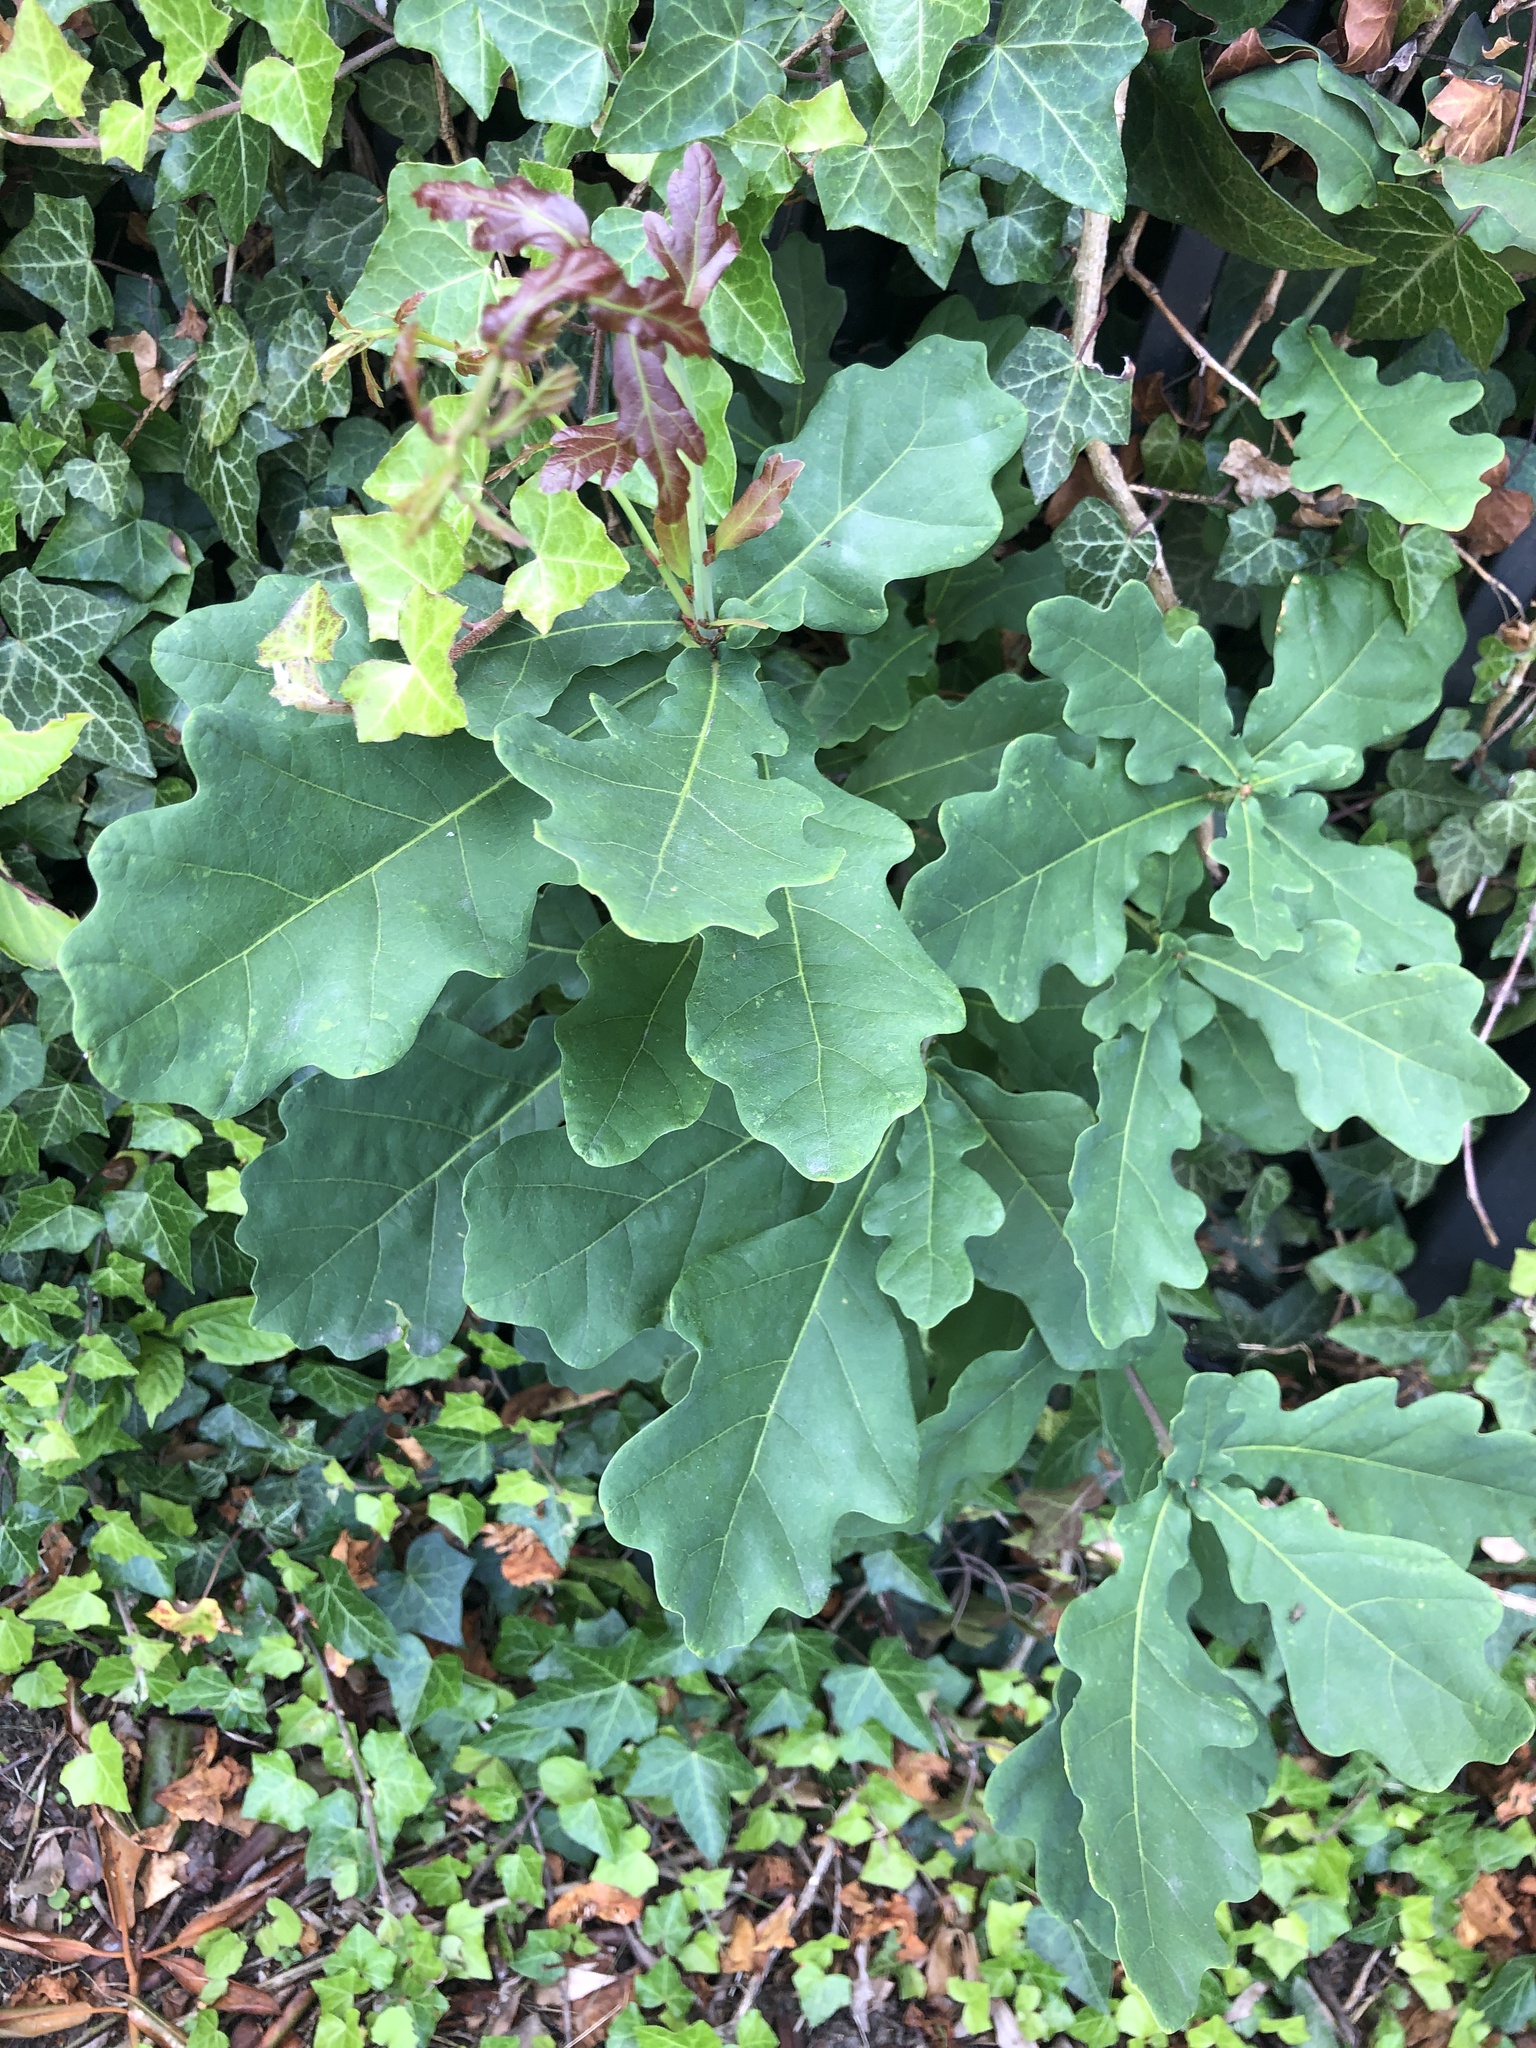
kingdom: Plantae
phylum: Tracheophyta
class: Magnoliopsida
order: Fagales
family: Fagaceae
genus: Quercus
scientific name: Quercus robur
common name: Pedunculate oak
